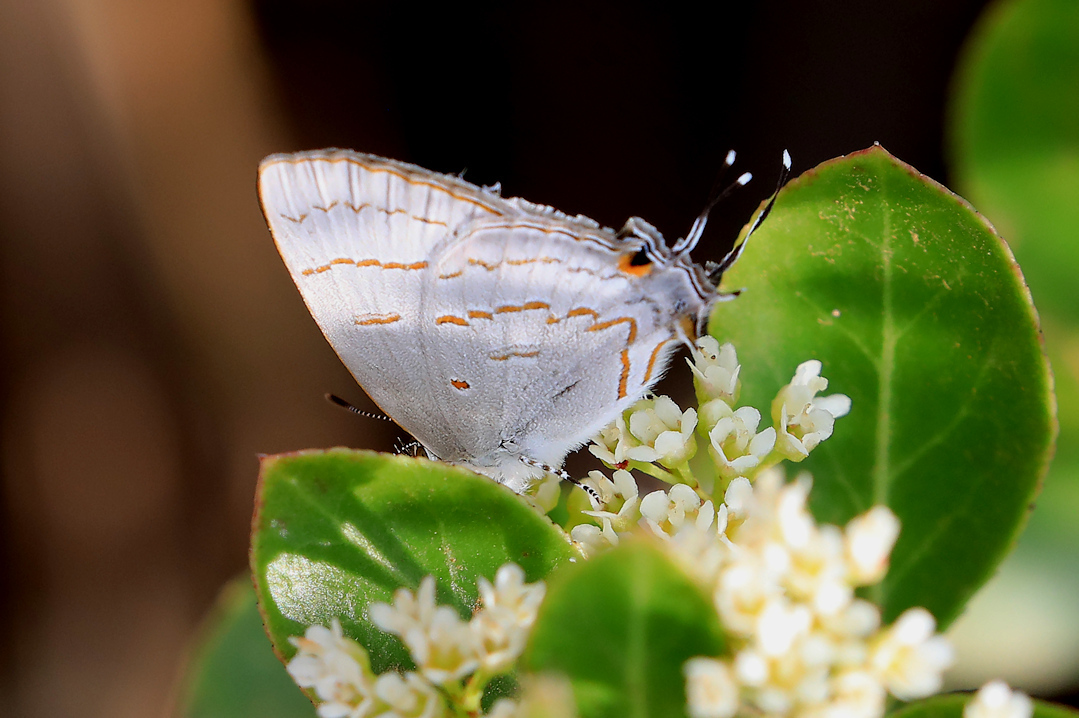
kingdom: Animalia
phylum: Arthropoda
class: Insecta
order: Lepidoptera
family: Lycaenidae
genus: Hypolycaena
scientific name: Hypolycaena philippus
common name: Common hairstreak
